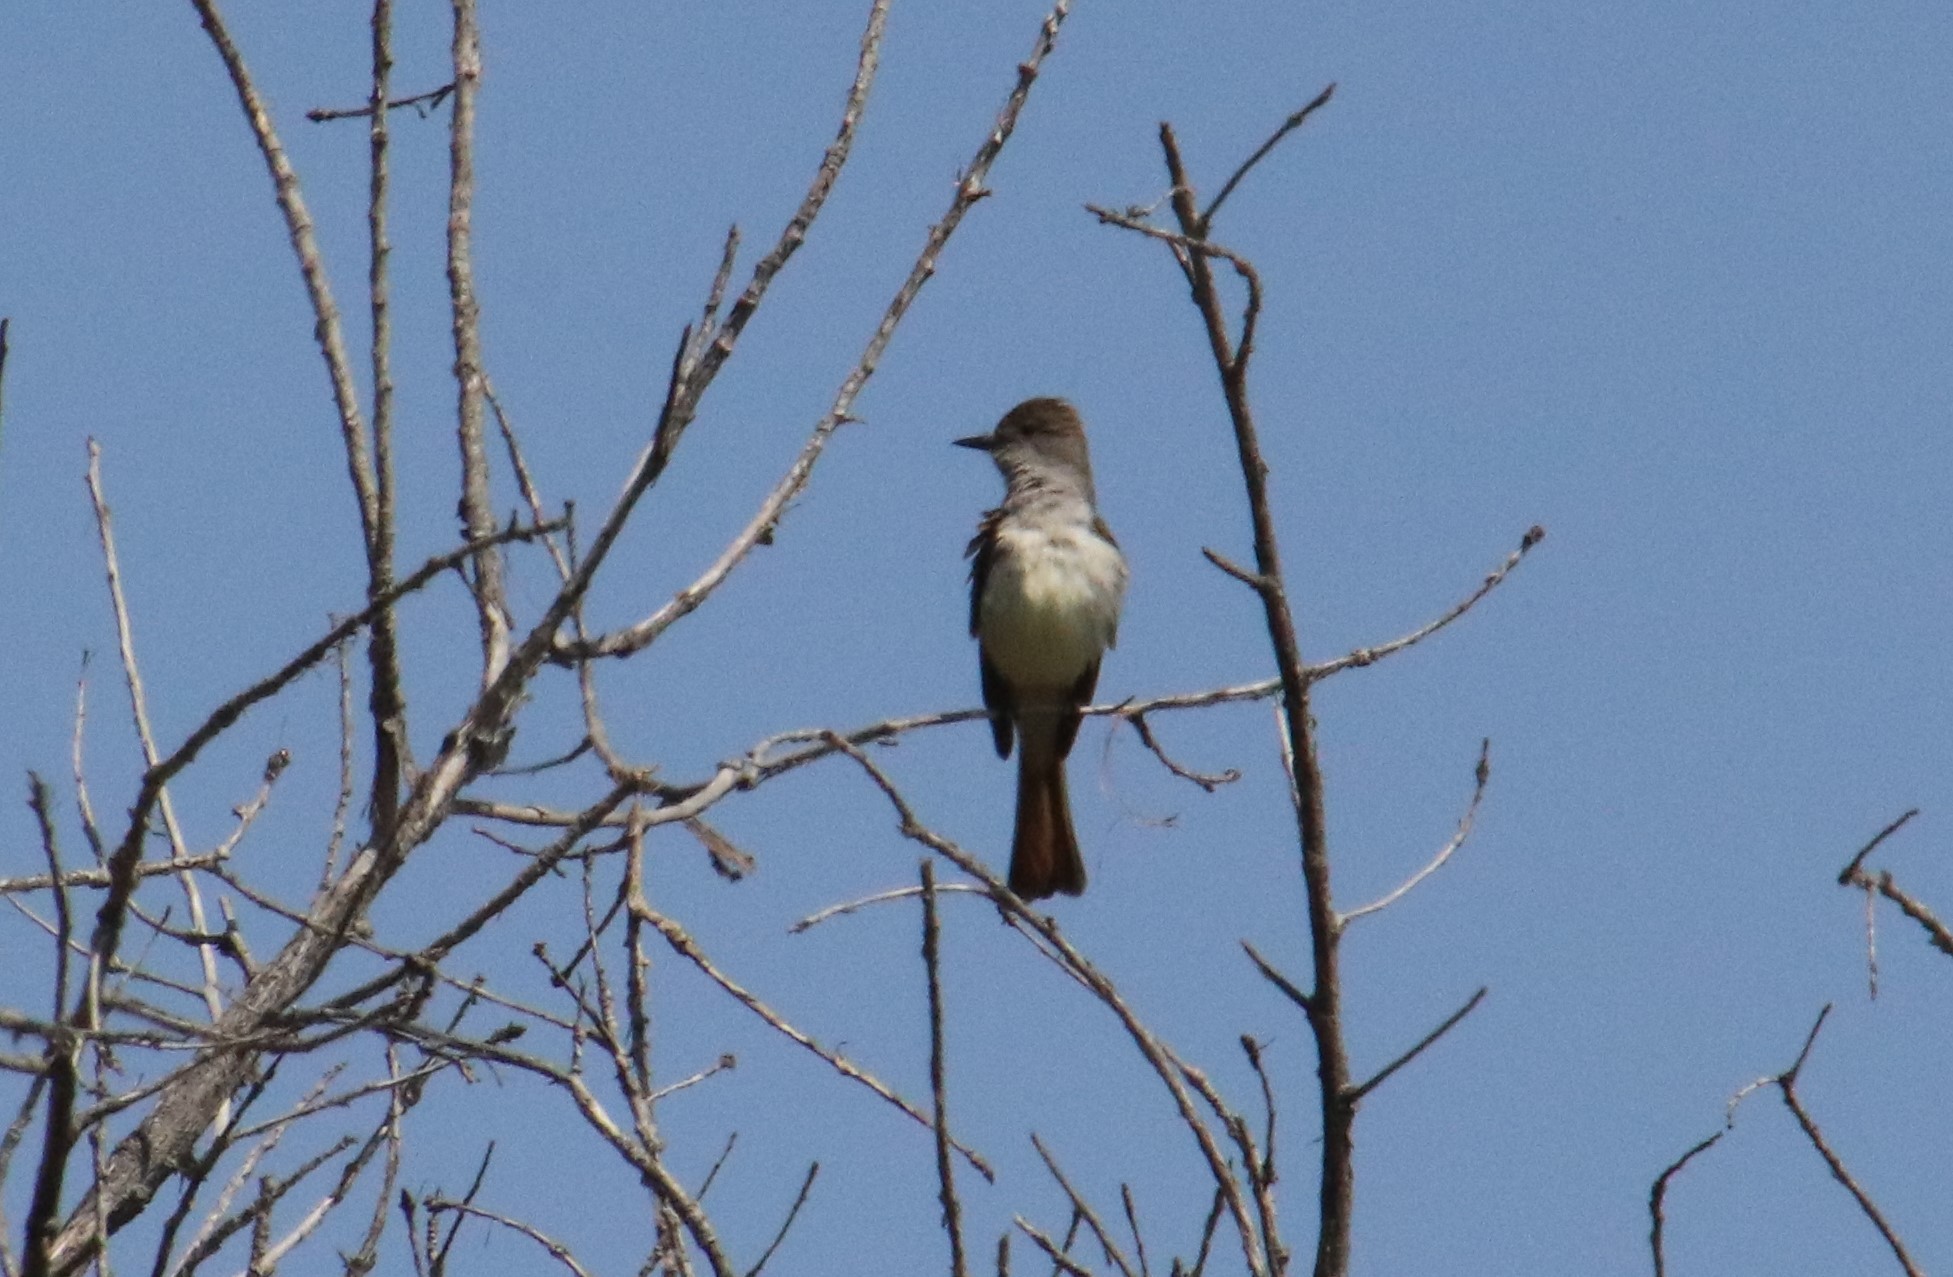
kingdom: Animalia
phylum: Chordata
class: Aves
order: Passeriformes
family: Tyrannidae
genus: Myiarchus
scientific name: Myiarchus cinerascens
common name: Ash-throated flycatcher
